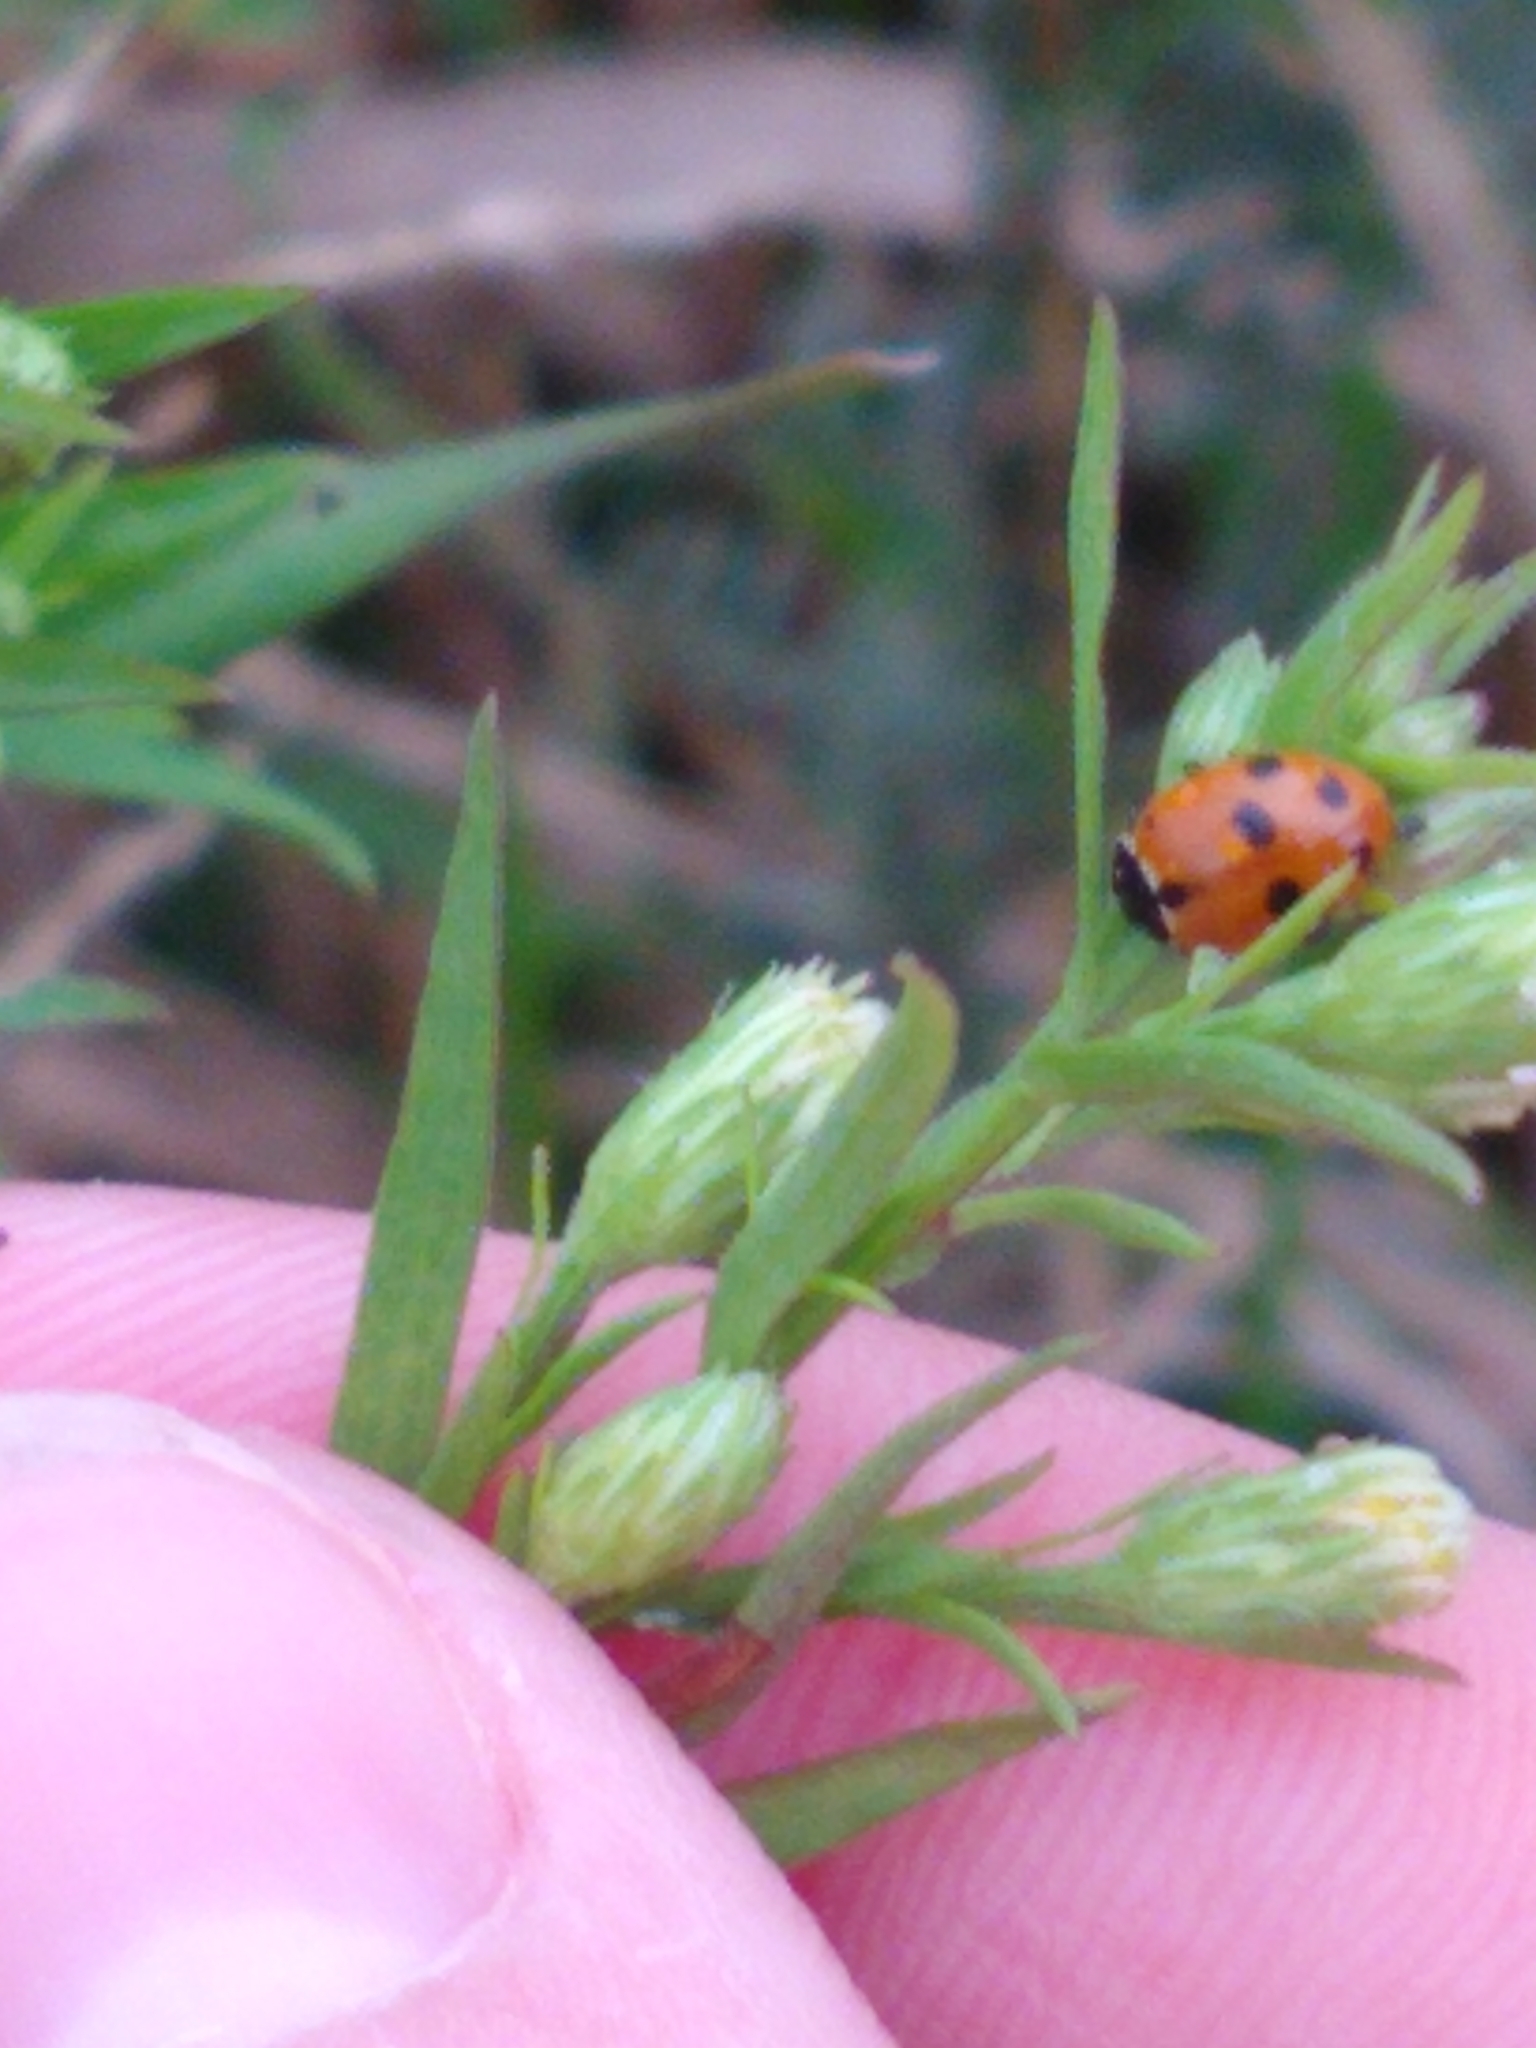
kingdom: Animalia
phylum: Arthropoda
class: Insecta
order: Coleoptera
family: Coccinellidae
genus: Hippodamia
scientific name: Hippodamia variegata
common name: Ladybird beetle
